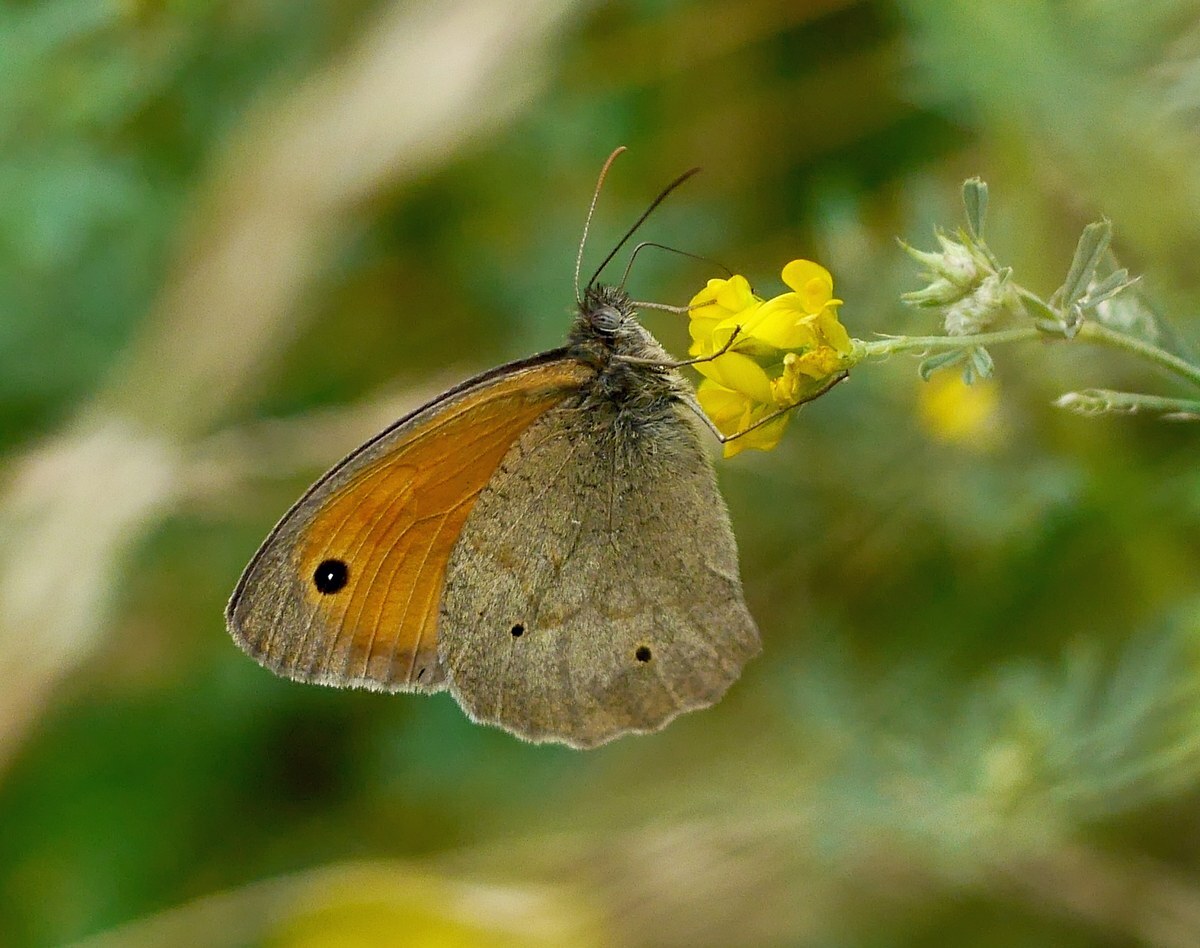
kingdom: Animalia
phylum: Arthropoda
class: Insecta
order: Lepidoptera
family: Nymphalidae
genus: Maniola
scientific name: Maniola jurtina
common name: Meadow brown
